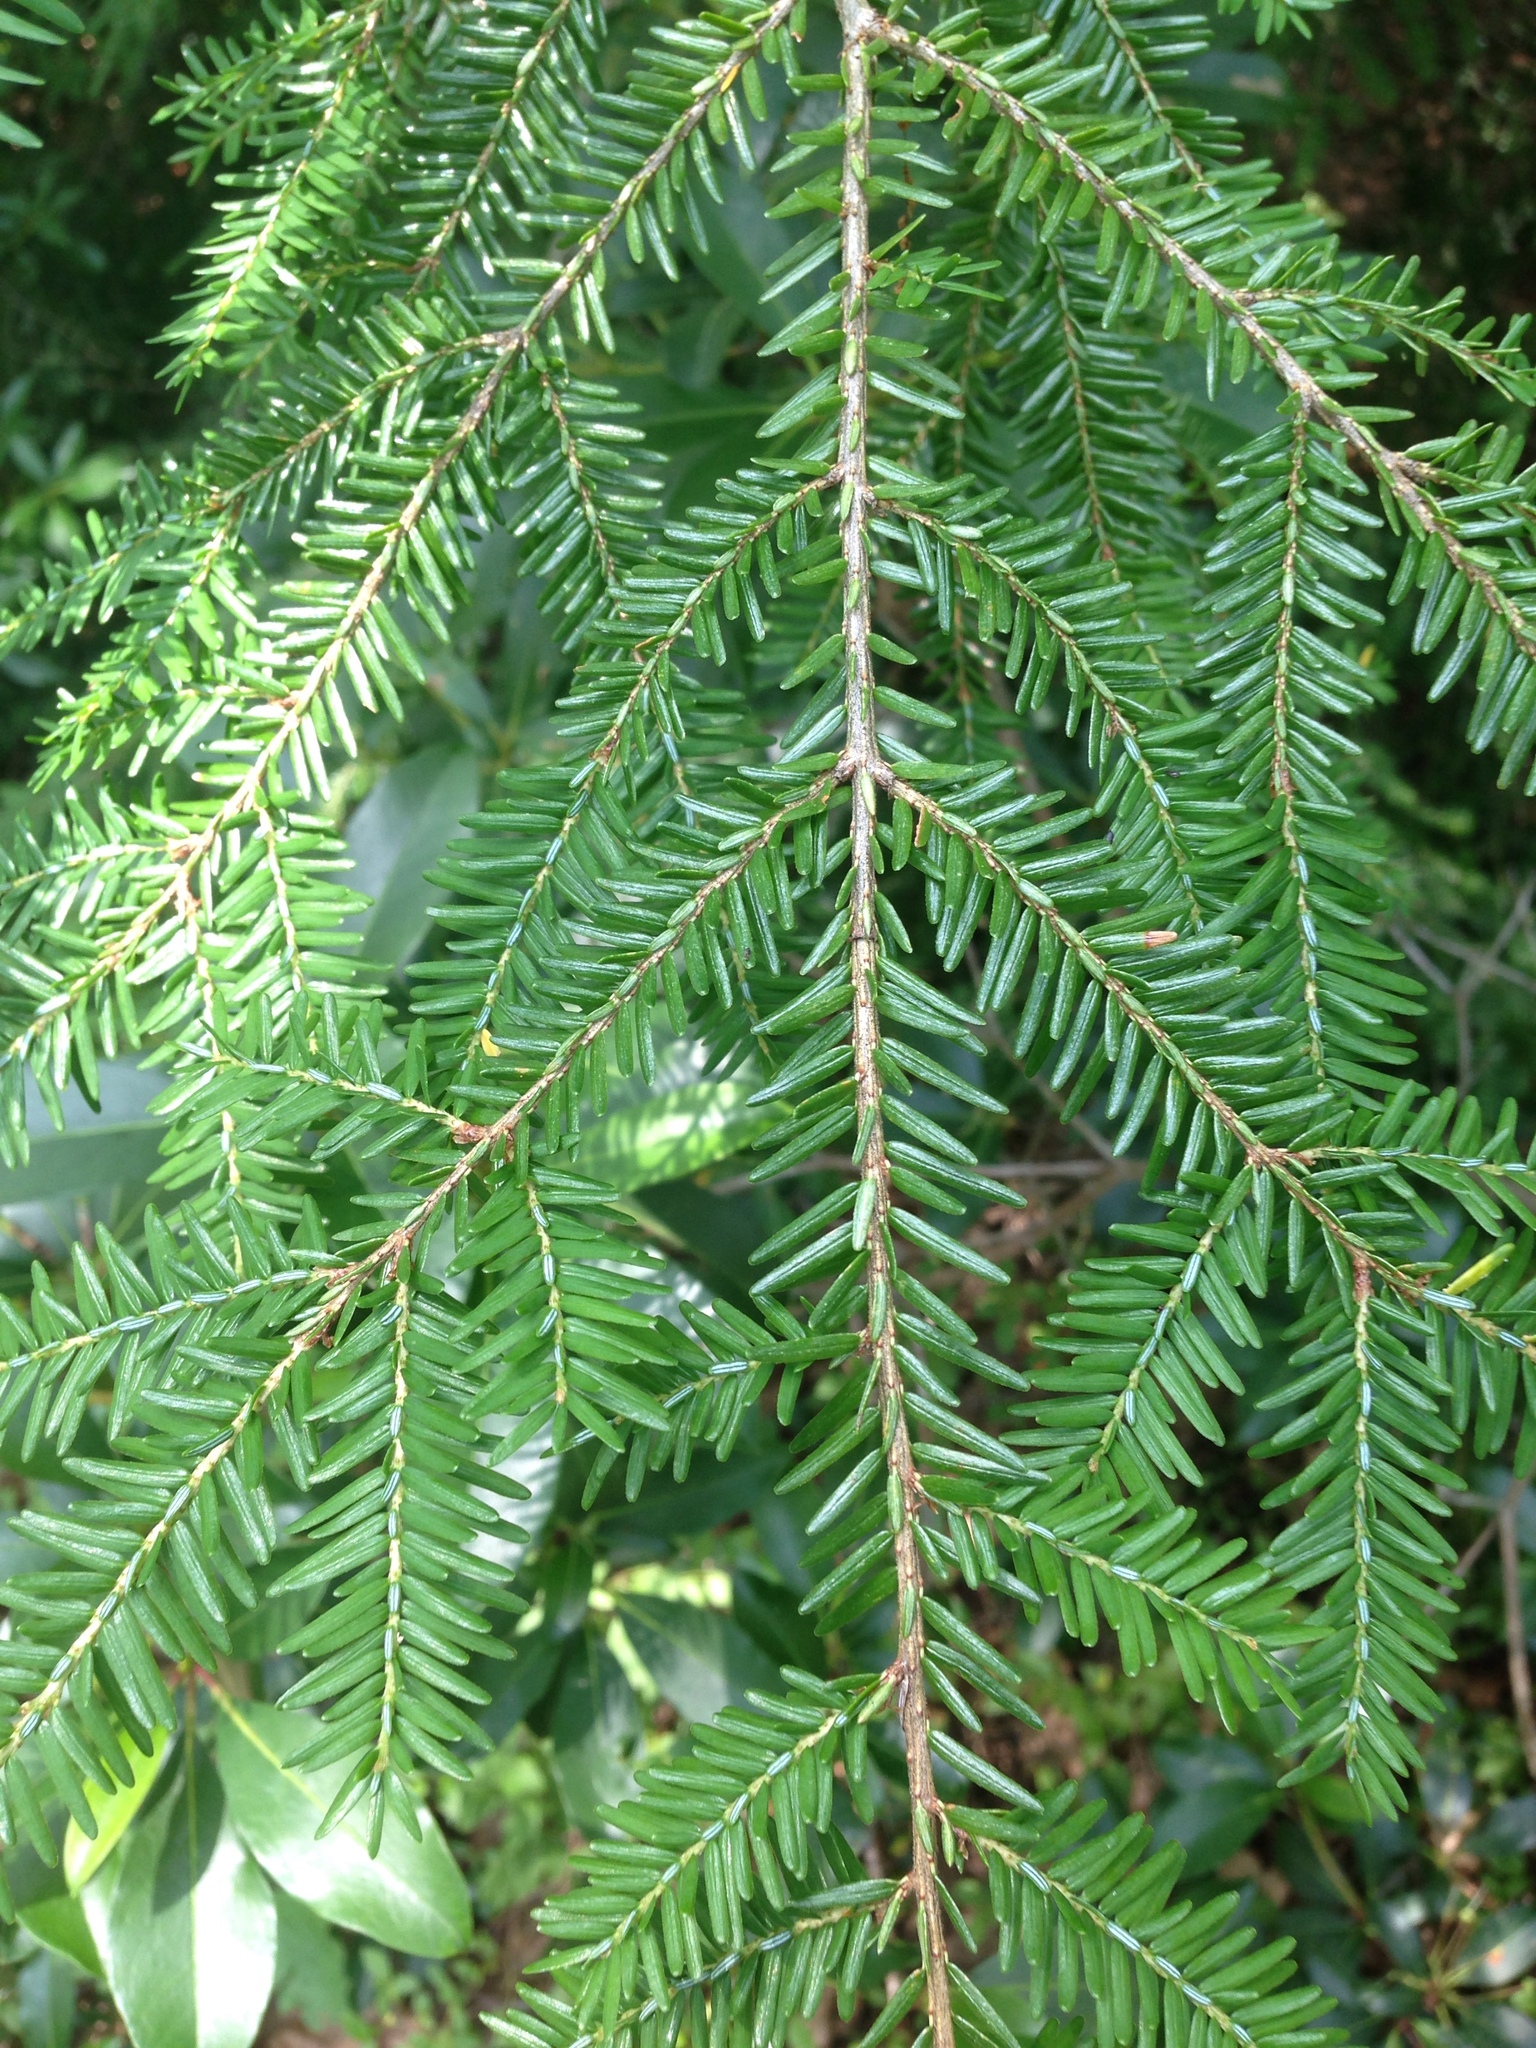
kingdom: Plantae
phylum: Tracheophyta
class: Pinopsida
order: Pinales
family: Pinaceae
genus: Tsuga
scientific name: Tsuga canadensis
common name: Eastern hemlock
